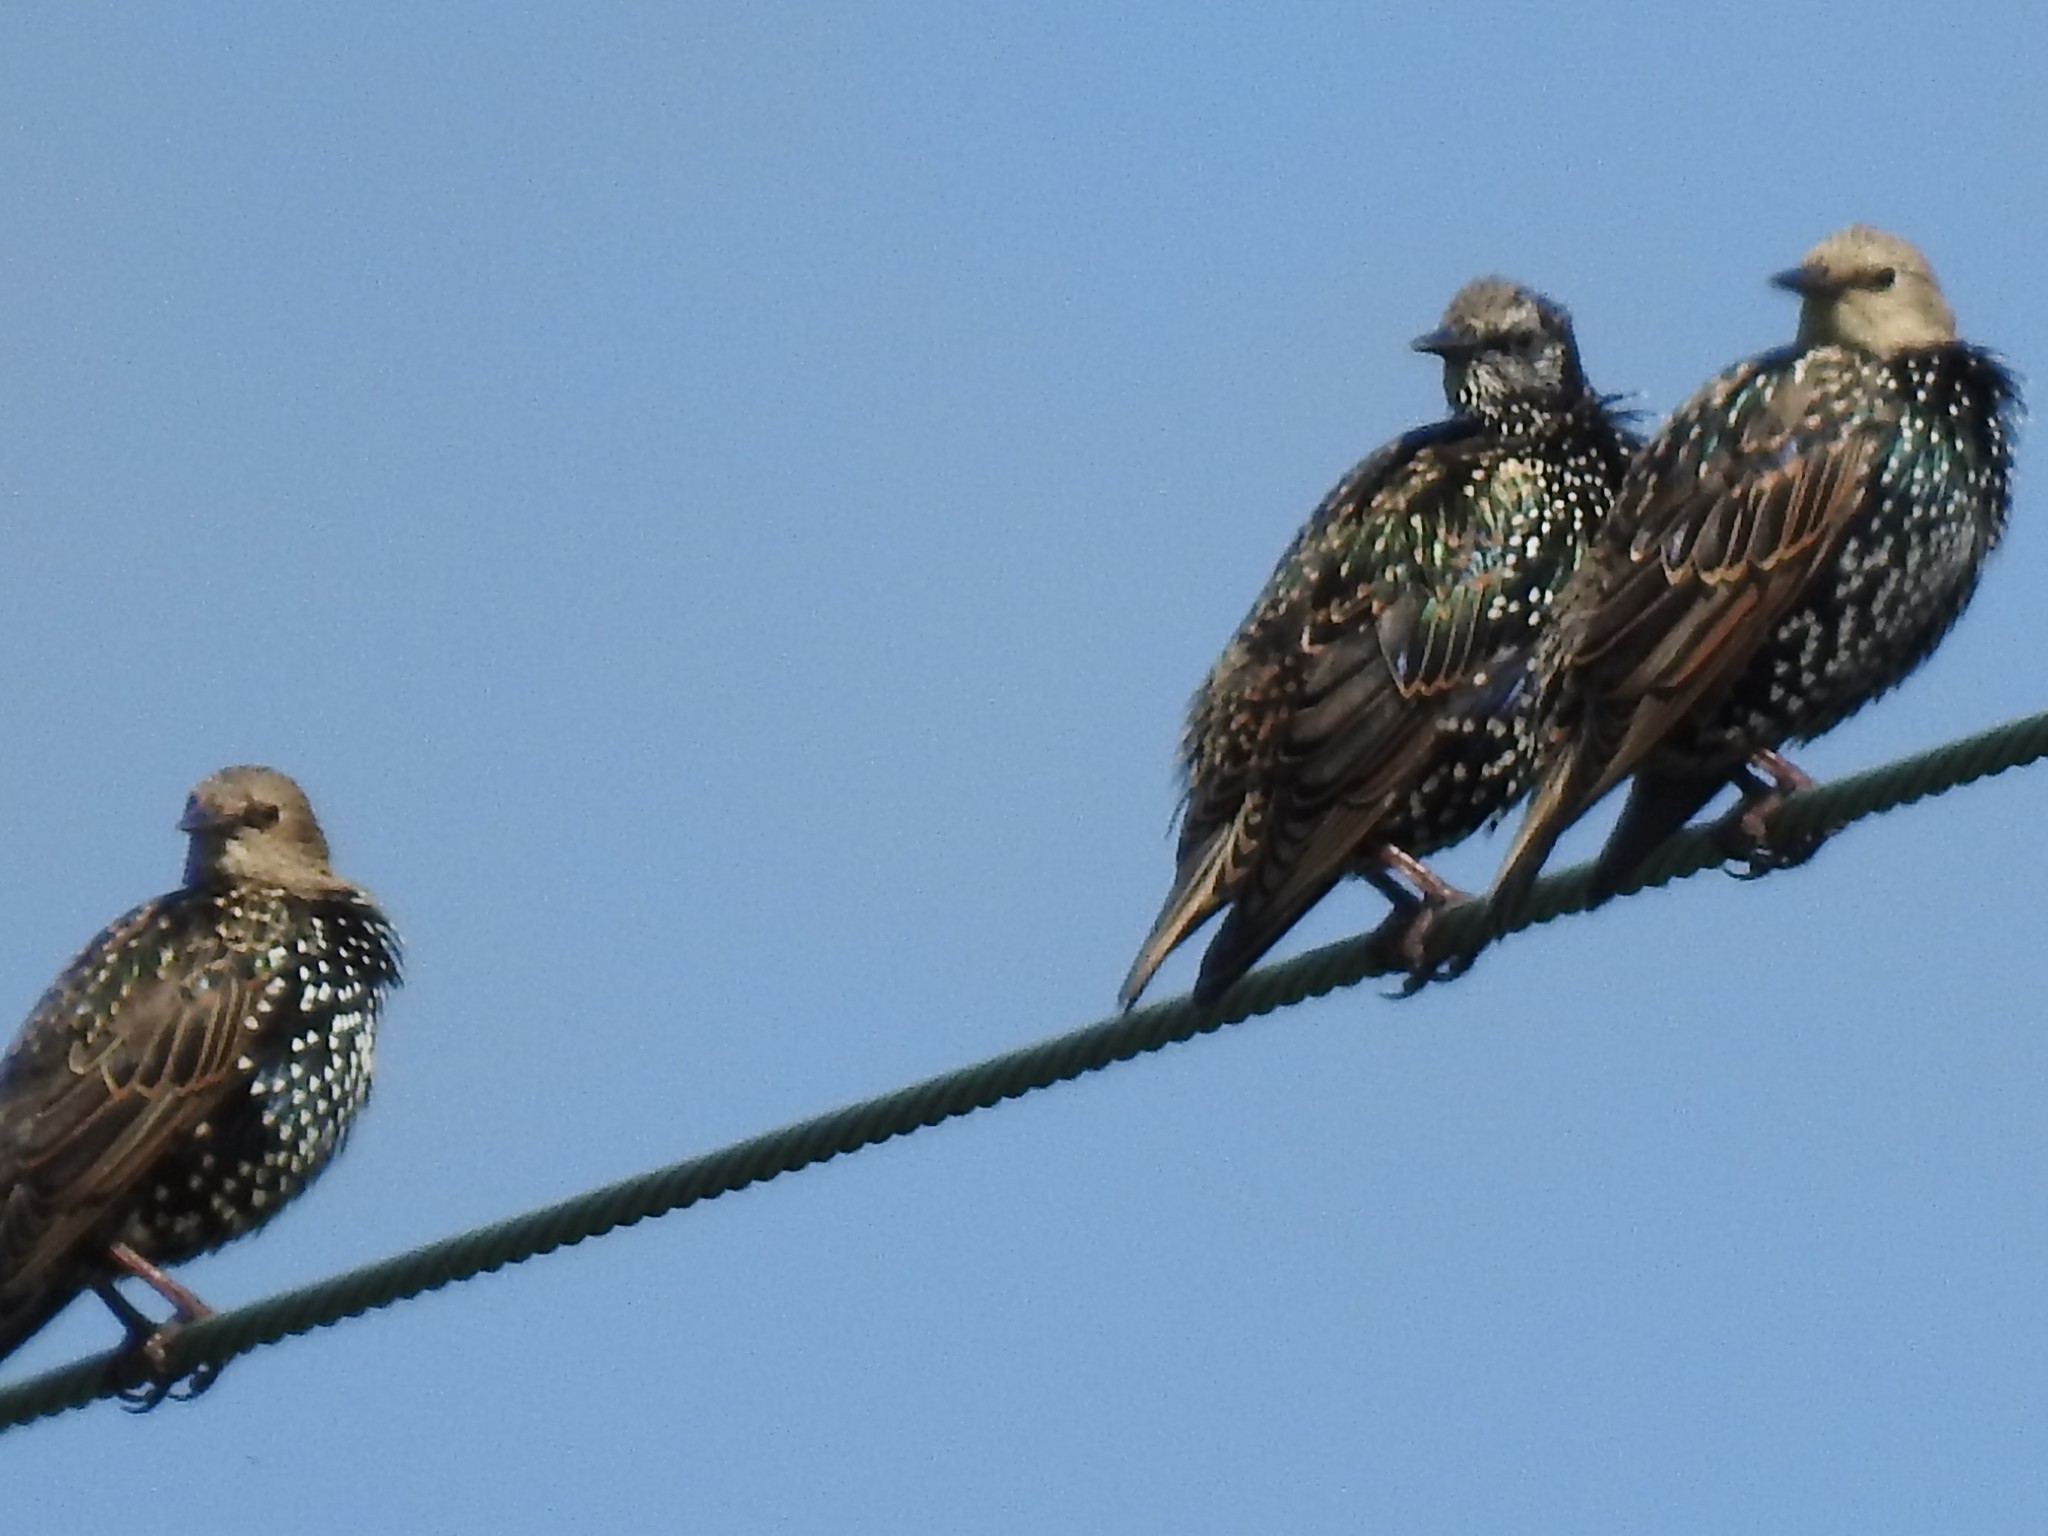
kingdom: Animalia
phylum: Chordata
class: Aves
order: Passeriformes
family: Sturnidae
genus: Sturnus
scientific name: Sturnus vulgaris
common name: Common starling
